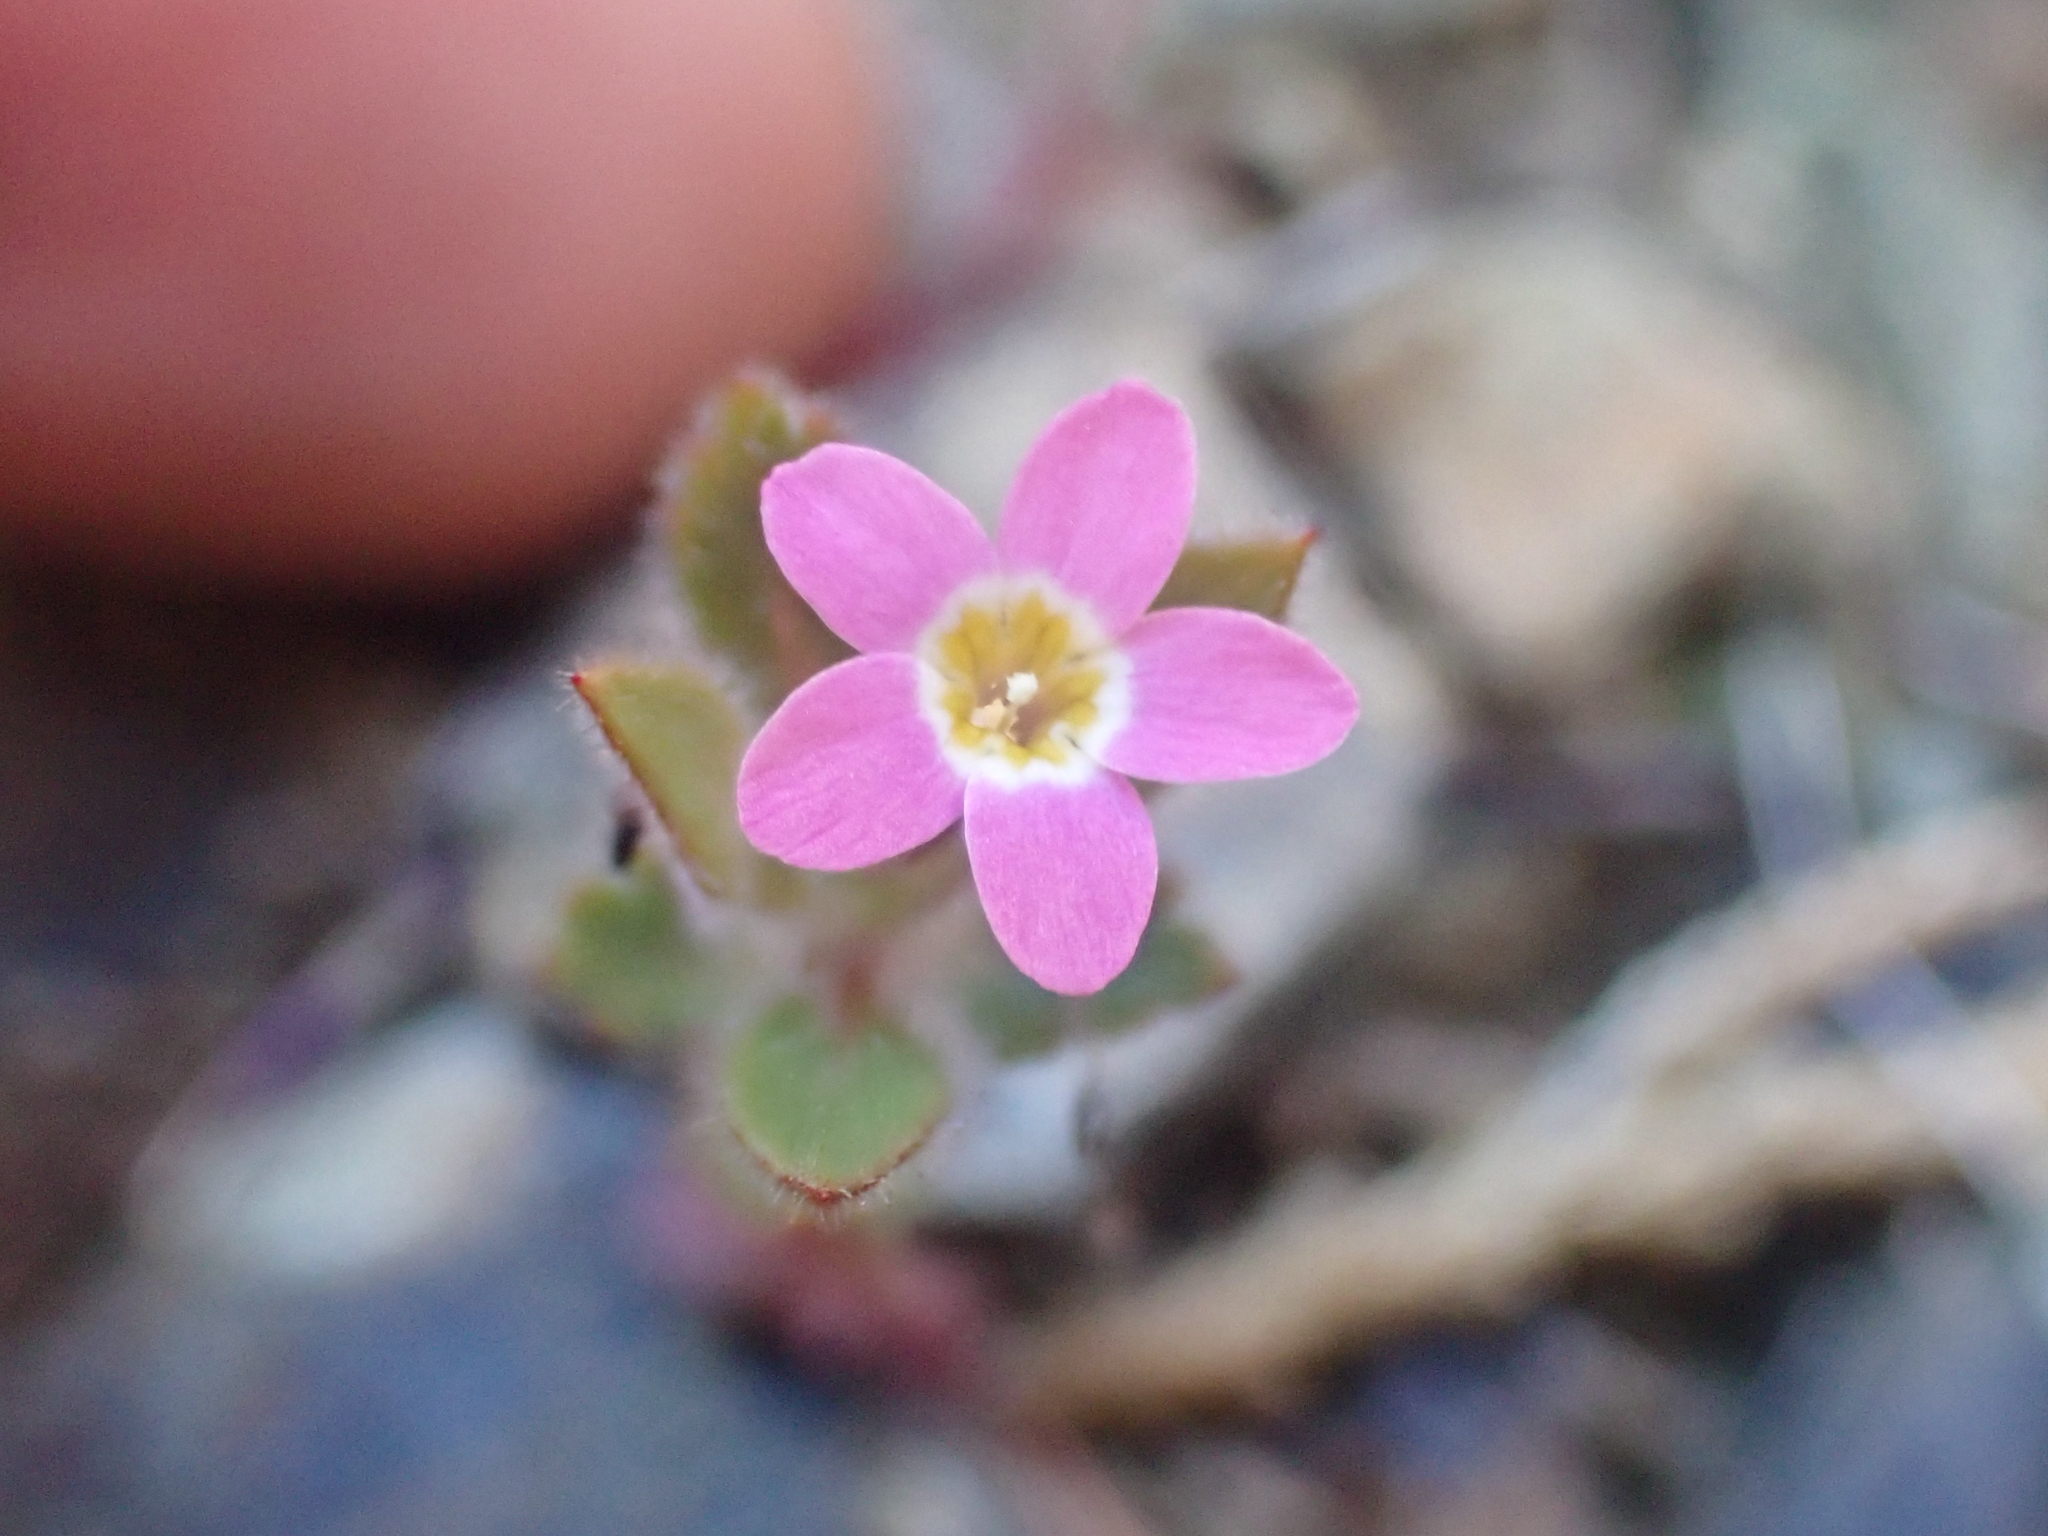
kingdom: Plantae
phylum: Tracheophyta
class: Magnoliopsida
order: Ericales
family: Polemoniaceae
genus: Collomia
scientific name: Collomia heterophylla
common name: Variable-leaved collomia
